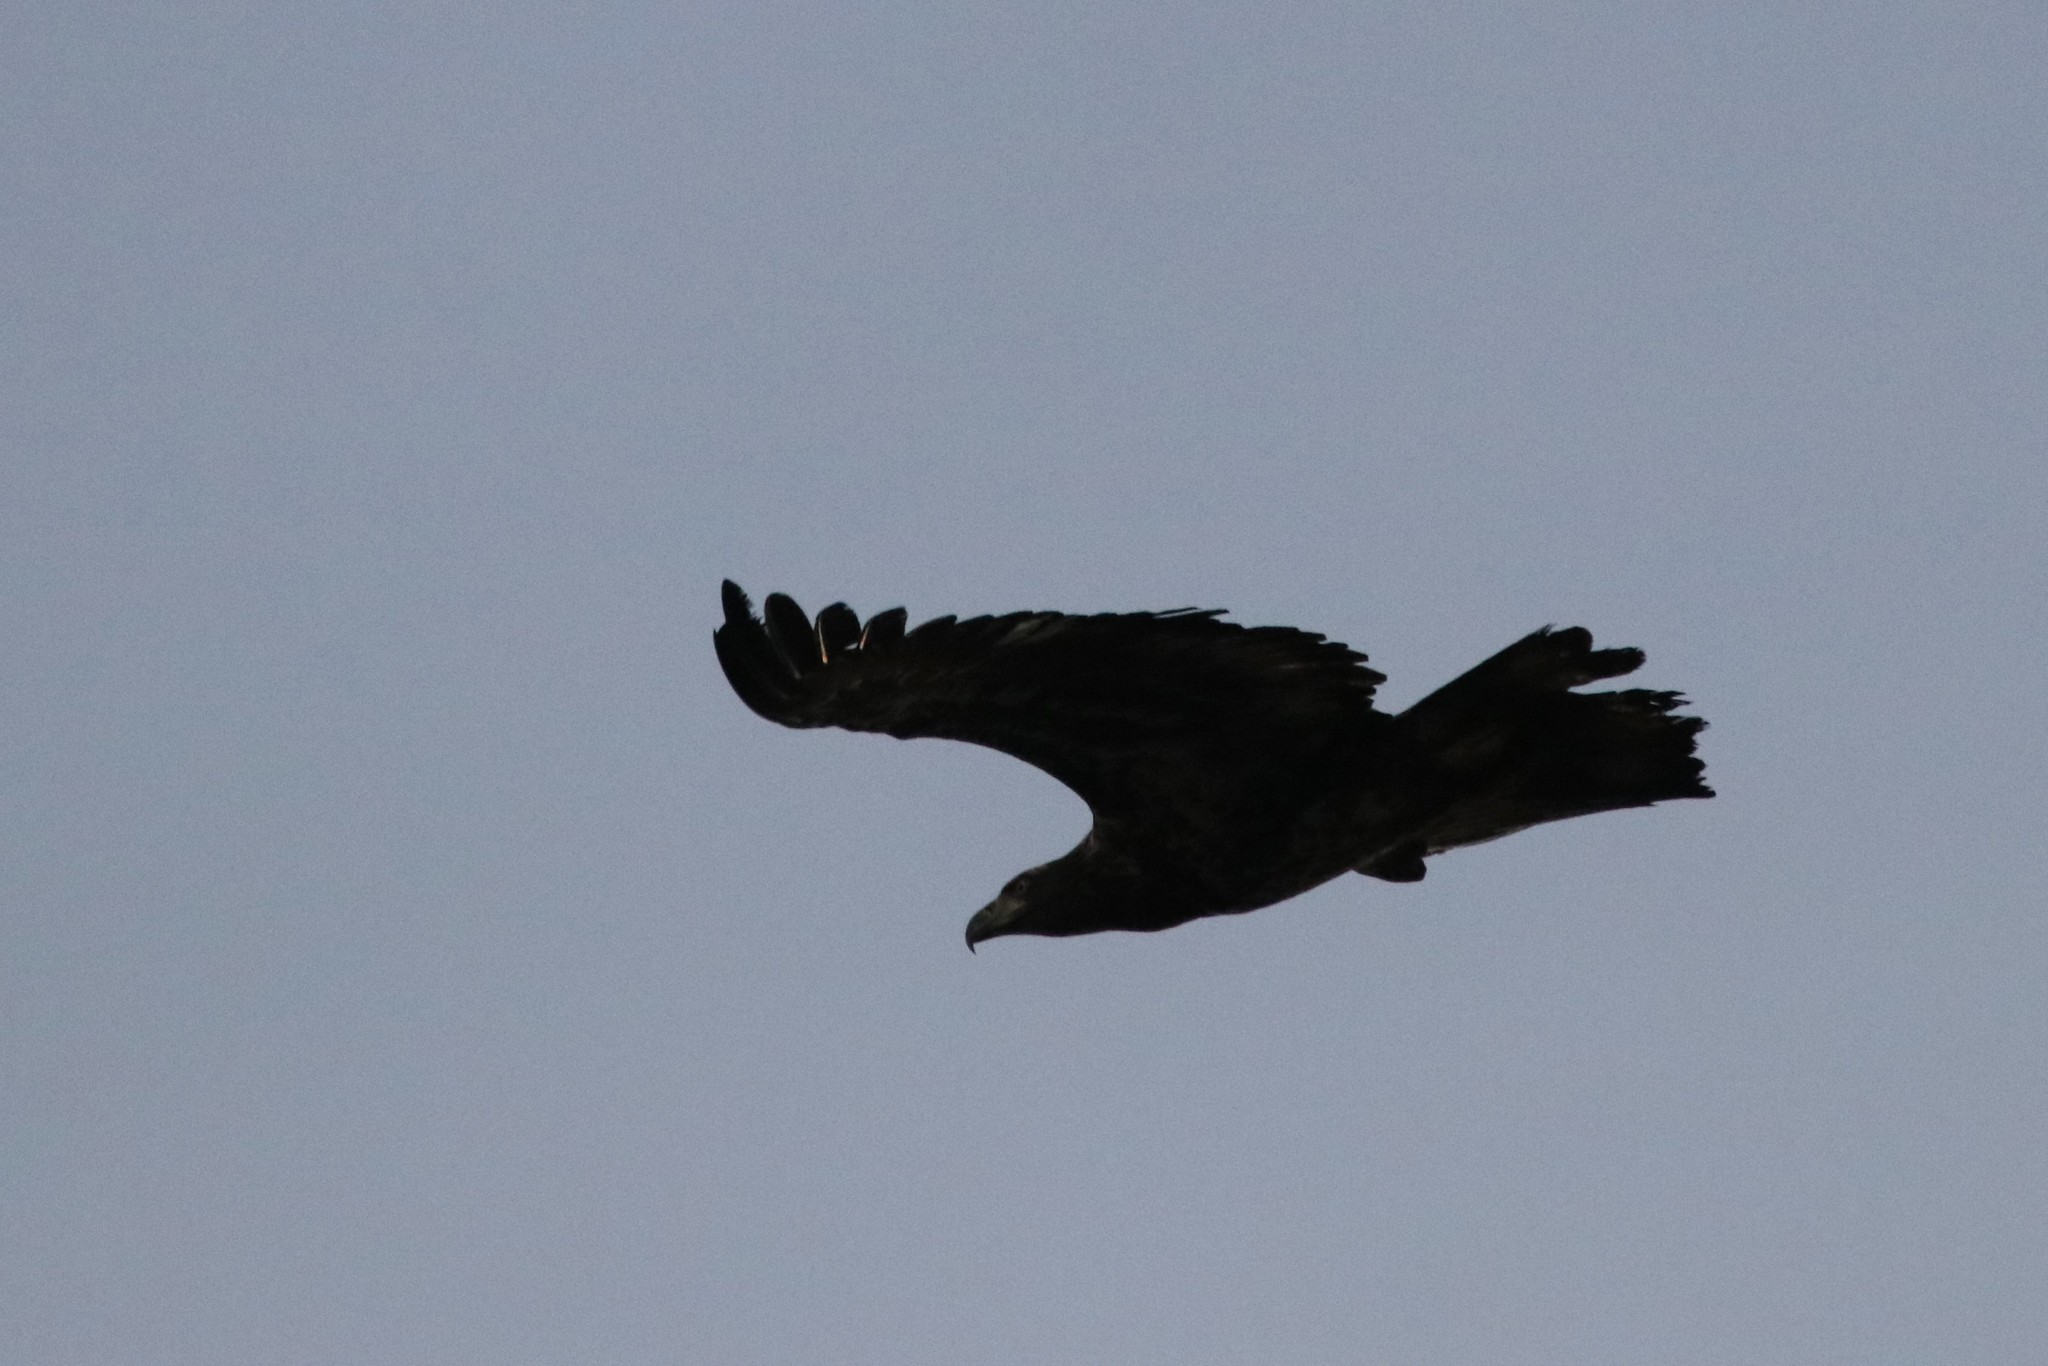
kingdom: Animalia
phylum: Chordata
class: Aves
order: Accipitriformes
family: Accipitridae
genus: Haliaeetus
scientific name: Haliaeetus leucocephalus
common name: Bald eagle
